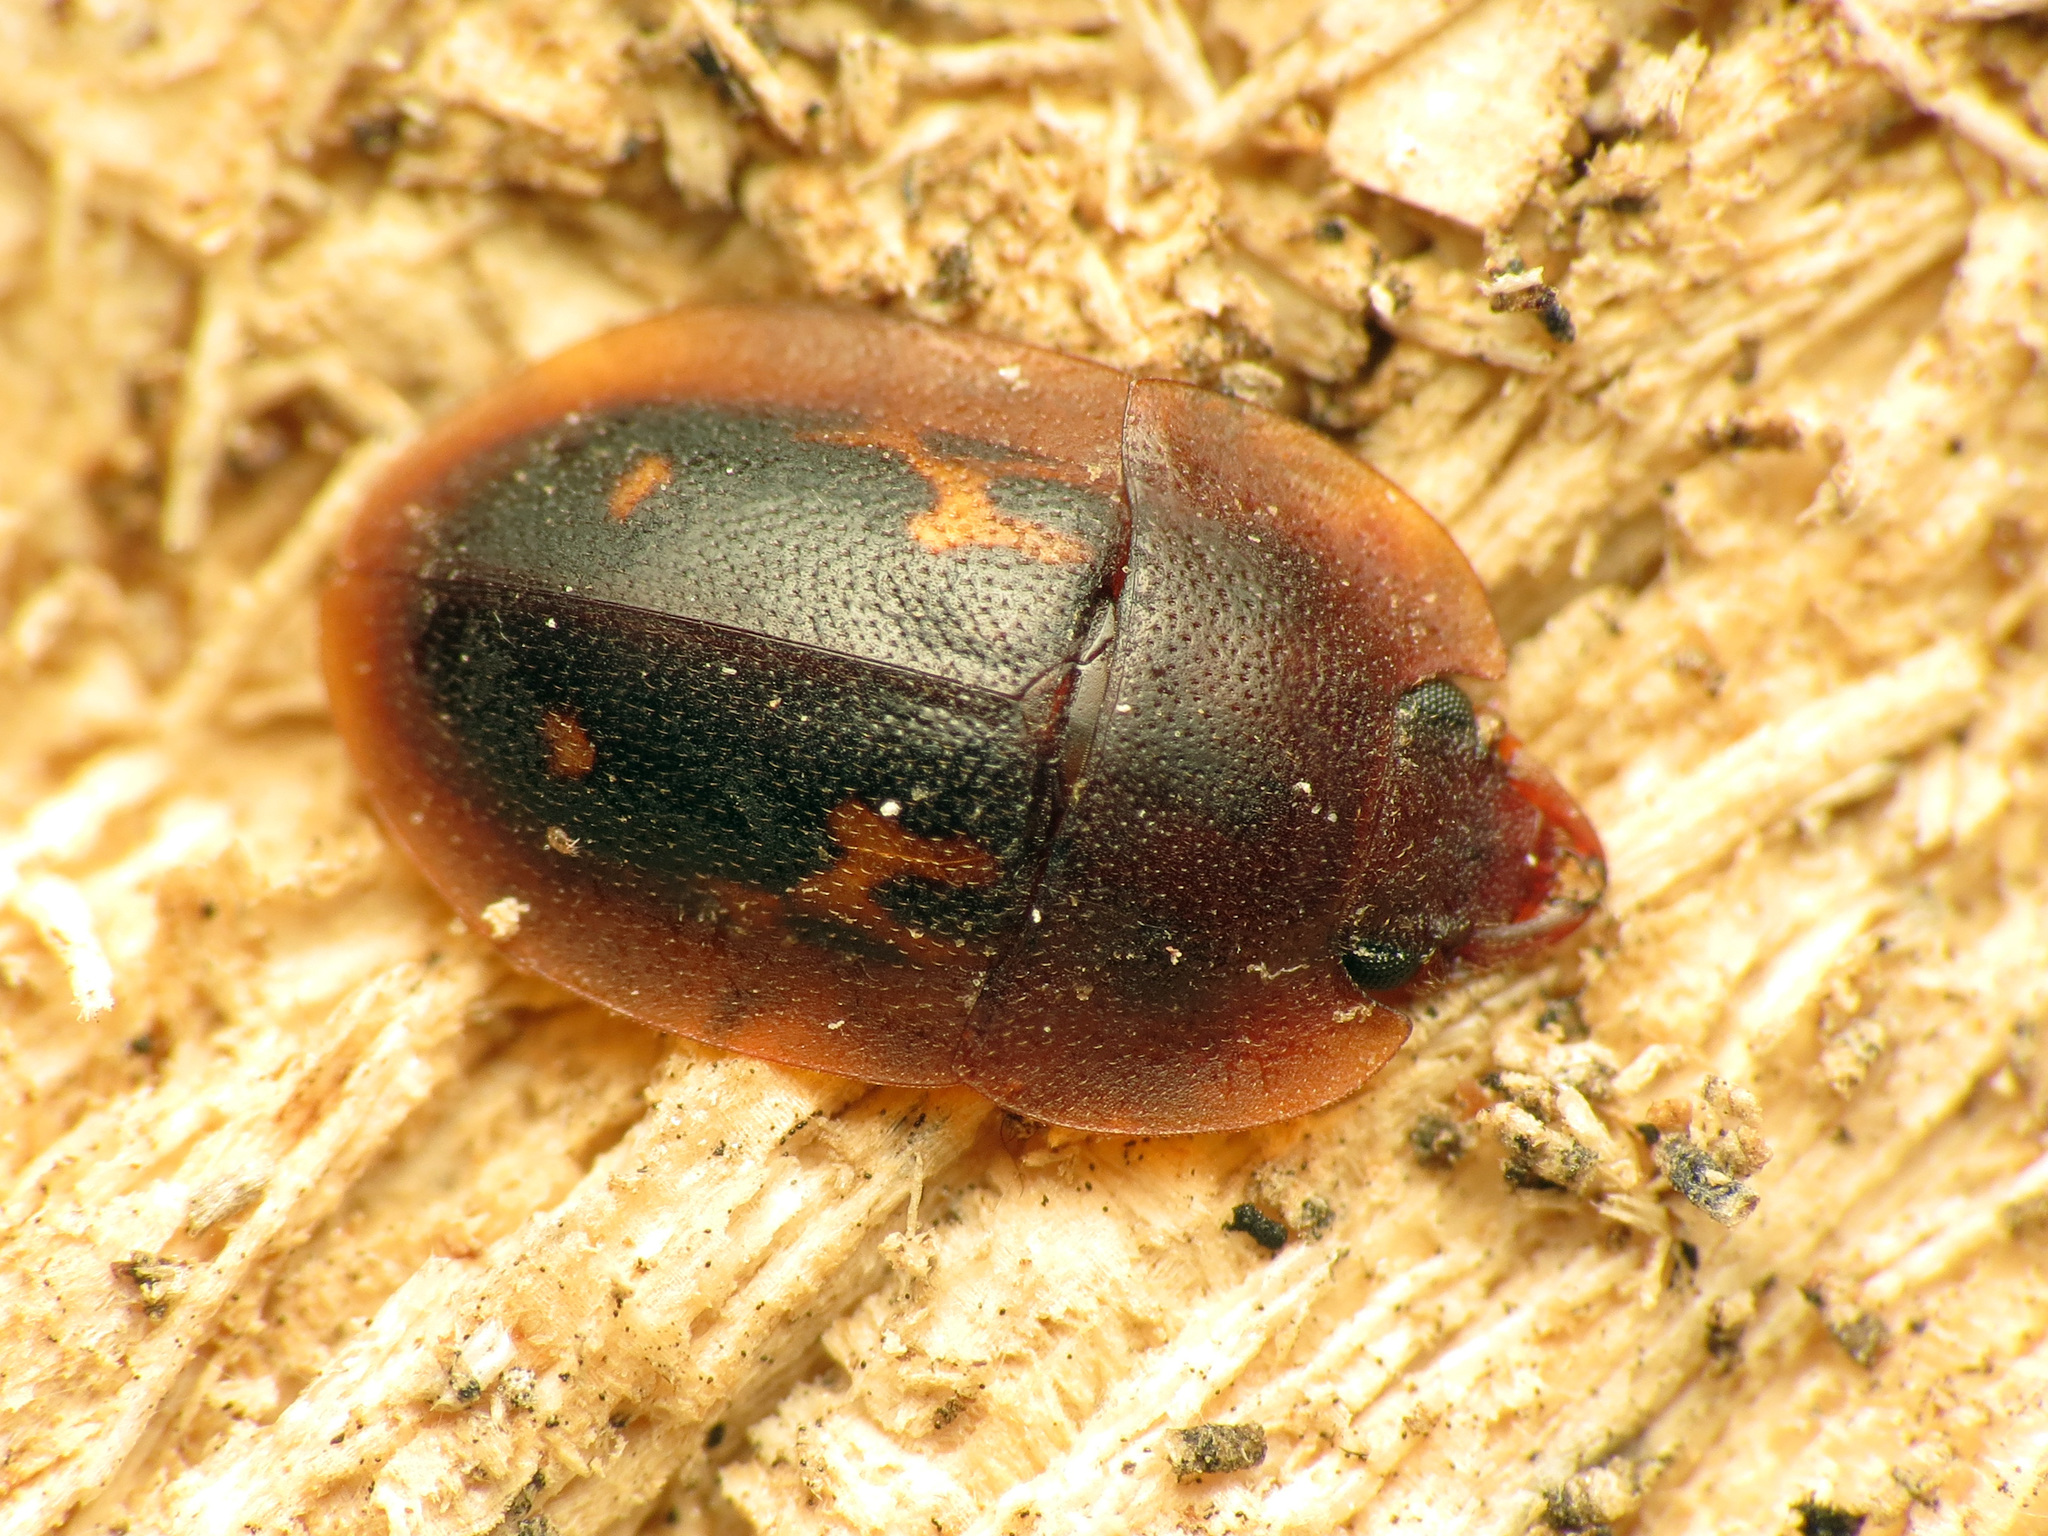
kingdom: Animalia
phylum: Arthropoda
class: Insecta
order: Coleoptera
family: Nitidulidae
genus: Prometopia
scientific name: Prometopia sexmaculata
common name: Six-spotted sap-feeding beetle
